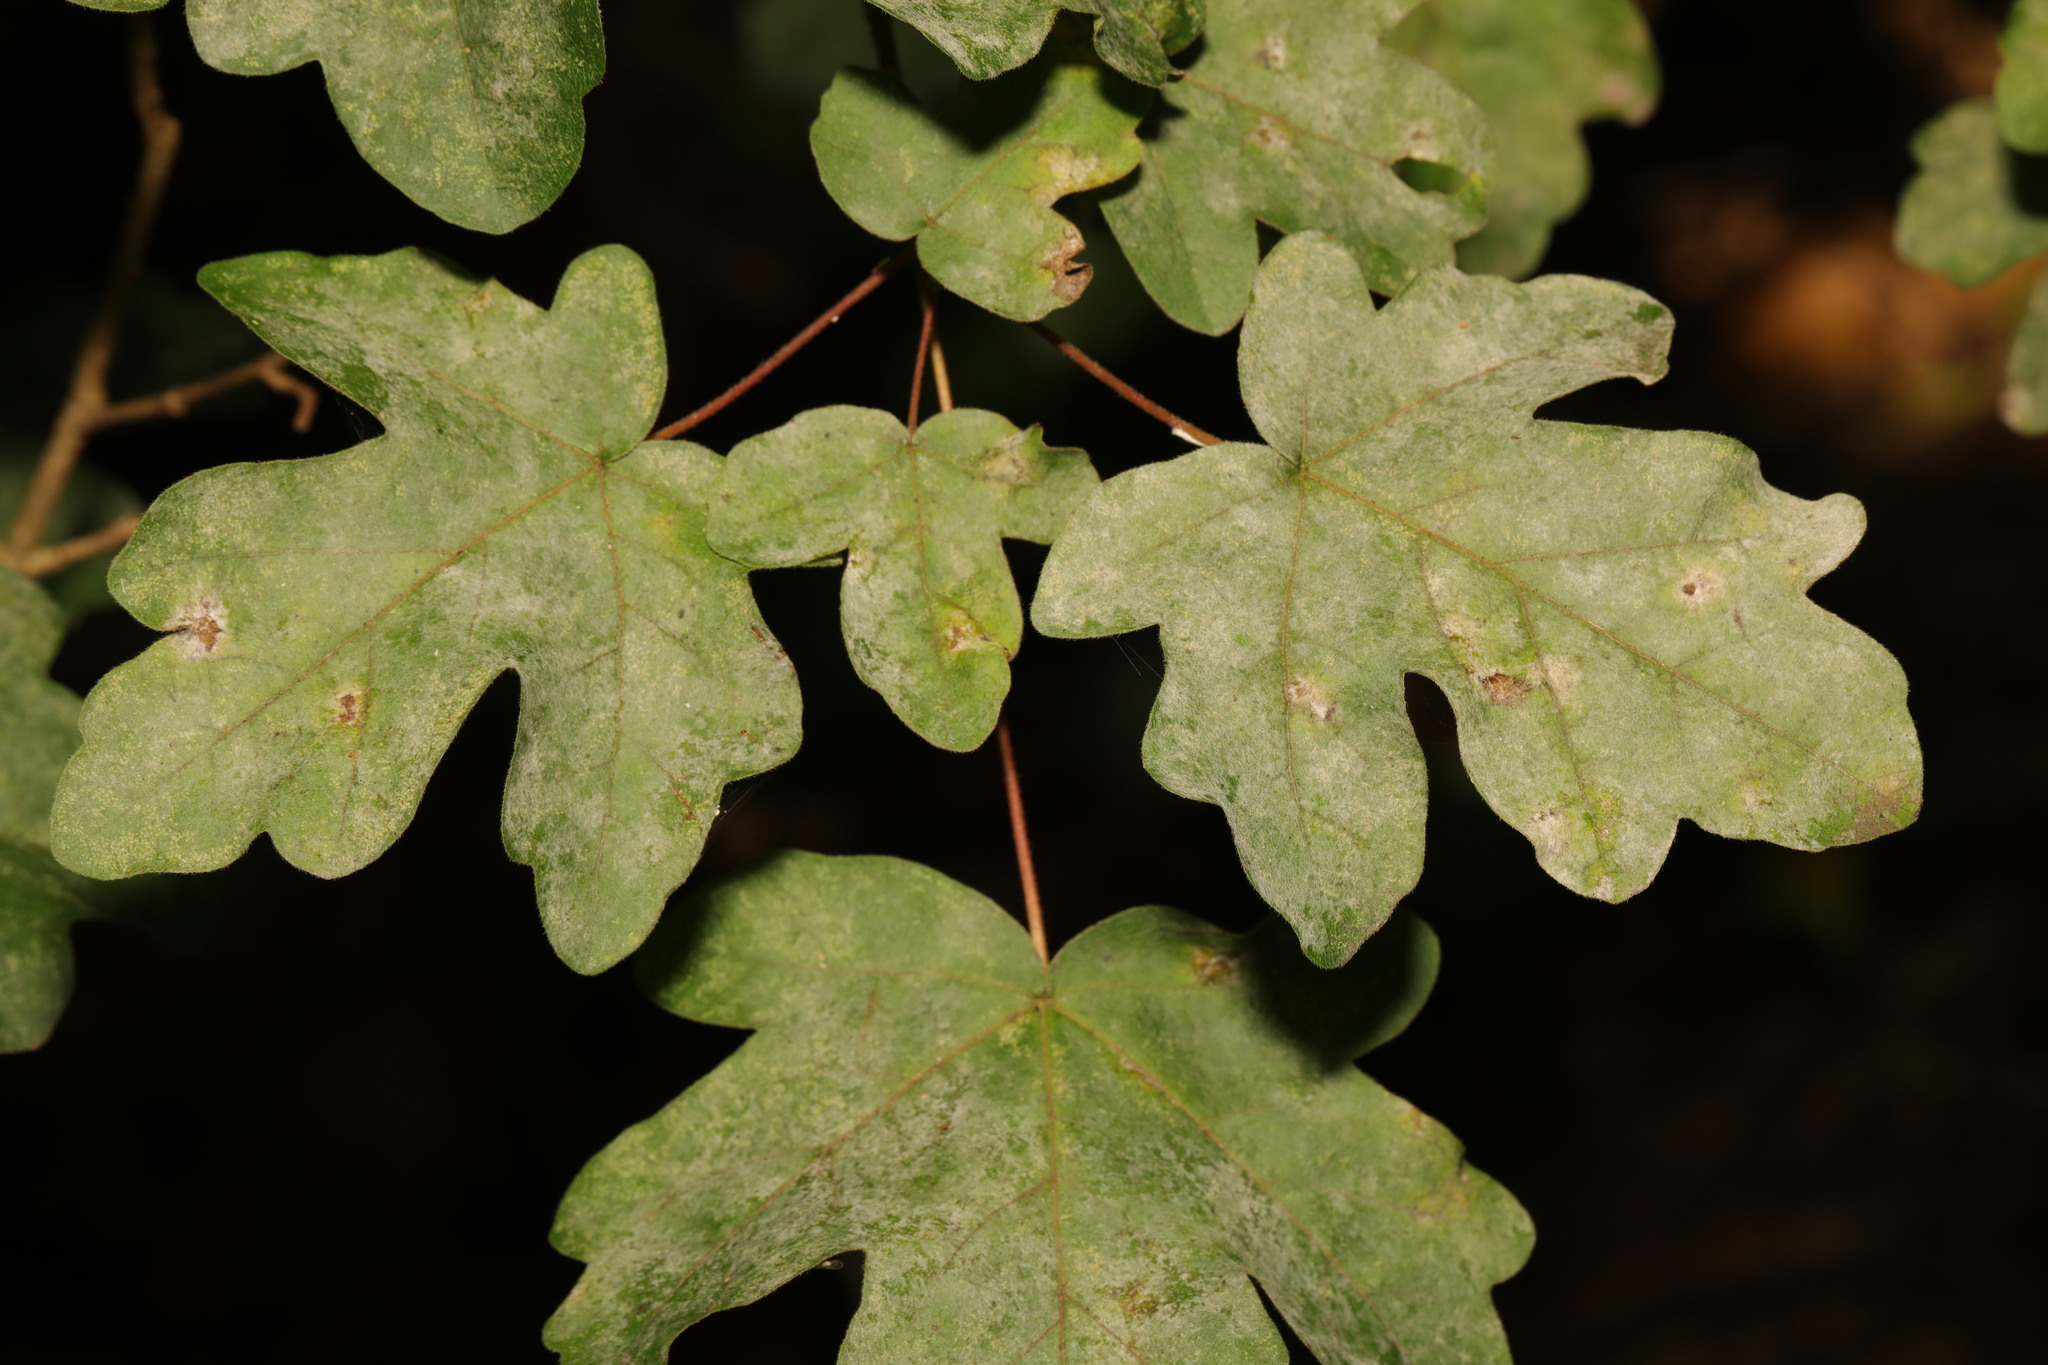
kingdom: Fungi
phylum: Ascomycota
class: Leotiomycetes
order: Helotiales
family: Erysiphaceae
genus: Sawadaea
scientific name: Sawadaea bicornis
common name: Maple mildew
